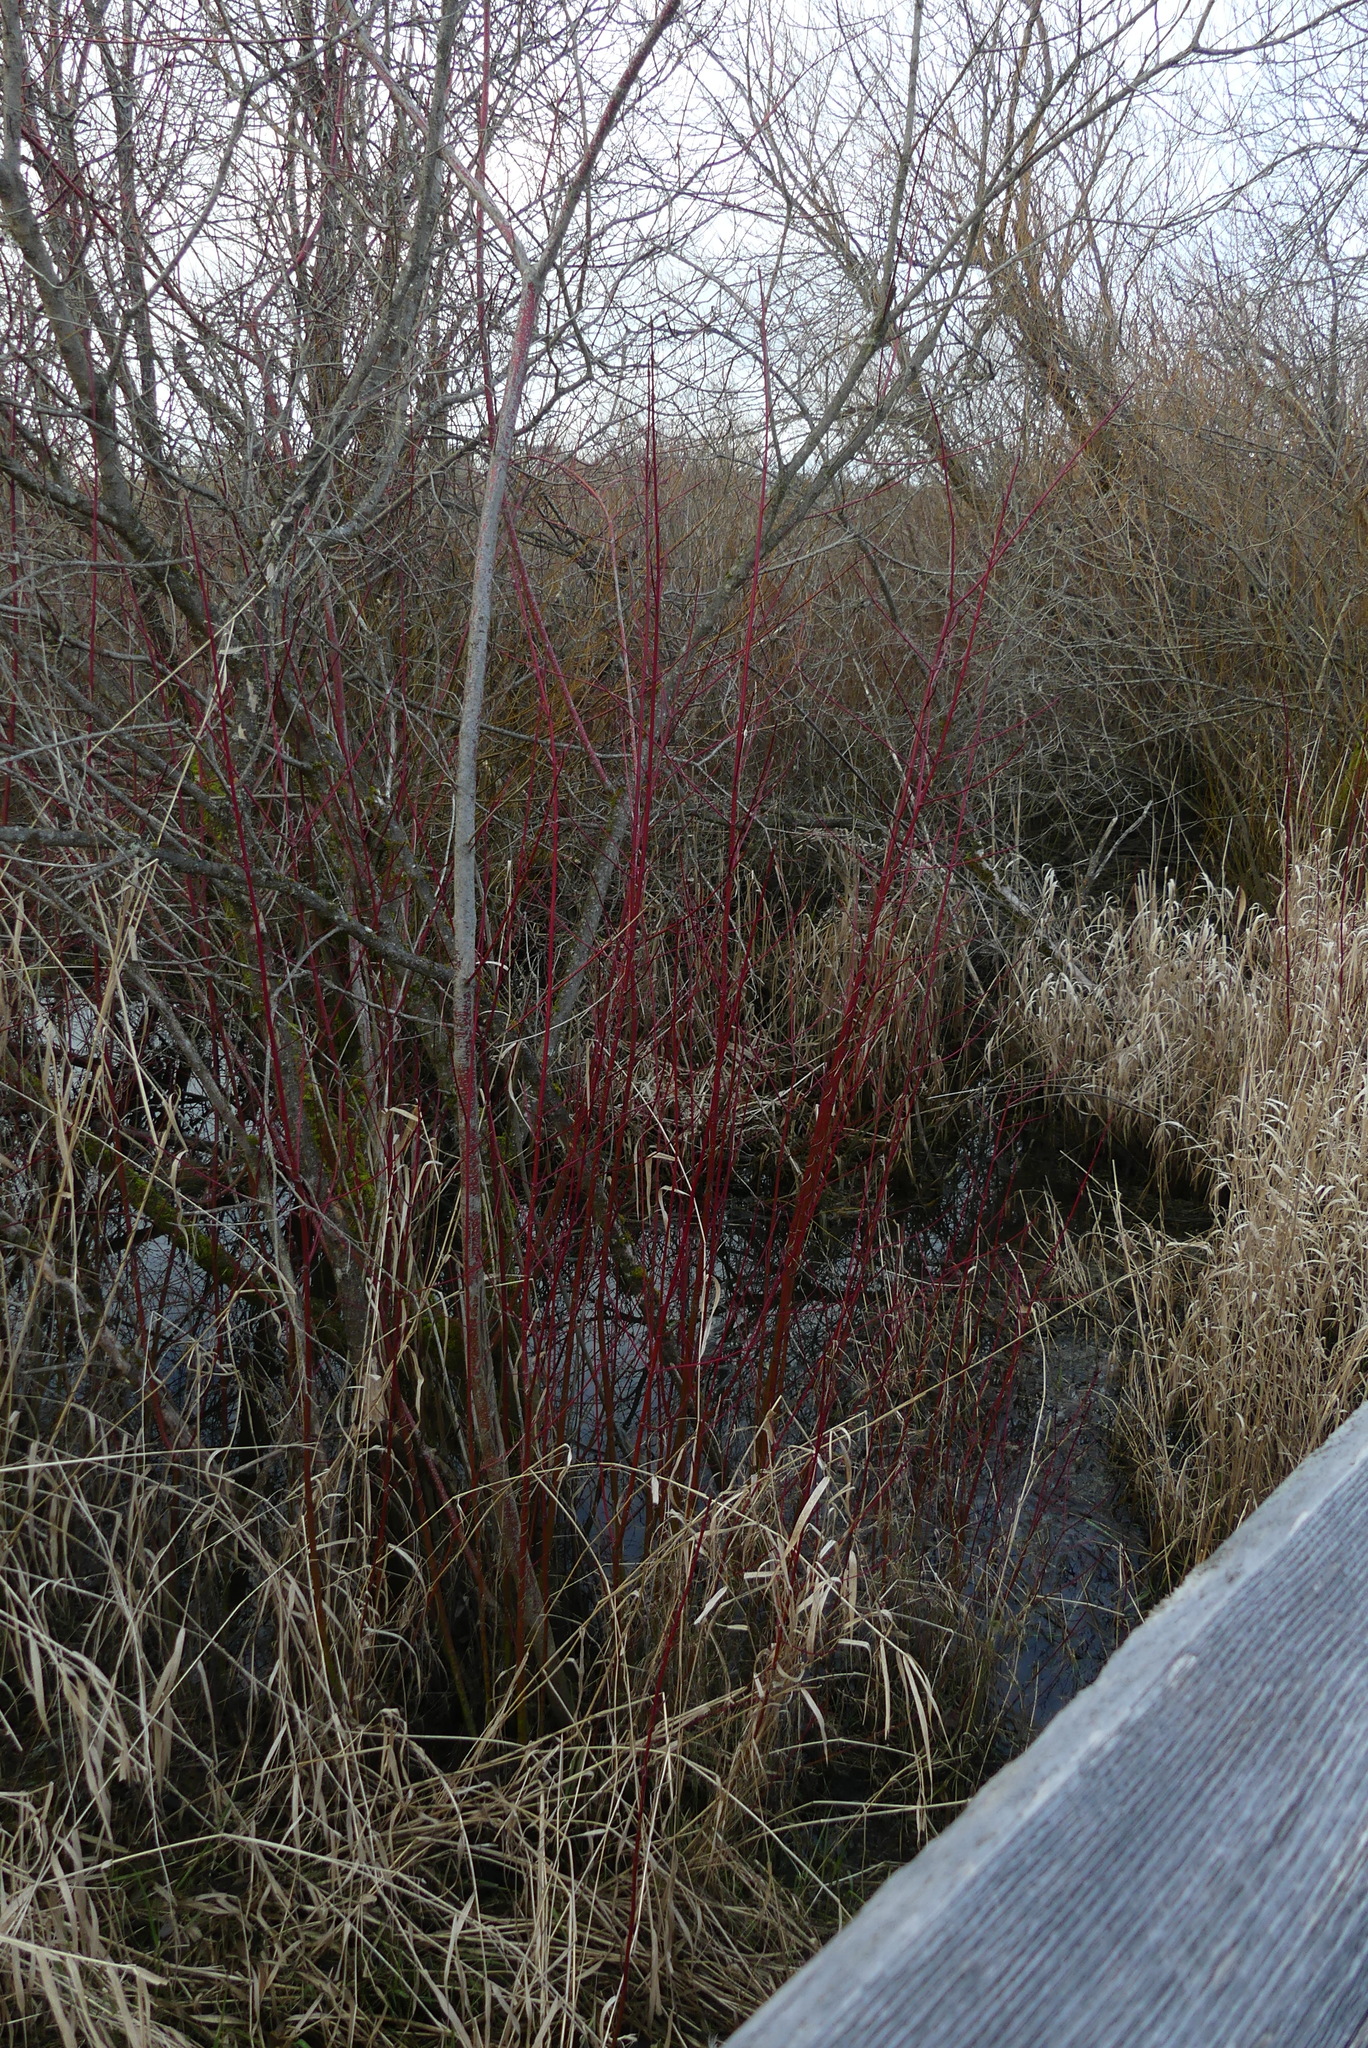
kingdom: Plantae
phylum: Tracheophyta
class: Magnoliopsida
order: Cornales
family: Cornaceae
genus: Cornus
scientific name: Cornus sericea
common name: Red-osier dogwood
